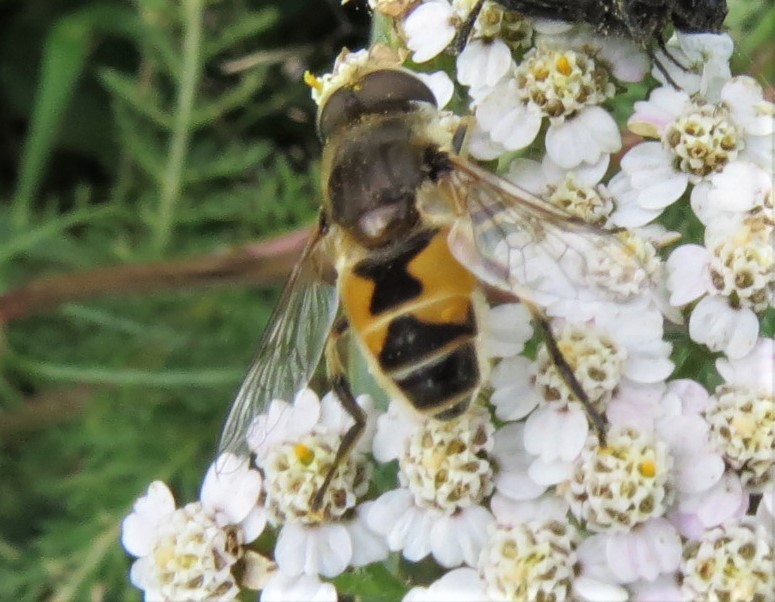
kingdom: Animalia
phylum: Arthropoda
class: Insecta
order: Diptera
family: Syrphidae
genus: Eristalis
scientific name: Eristalis arbustorum
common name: Hover fly
